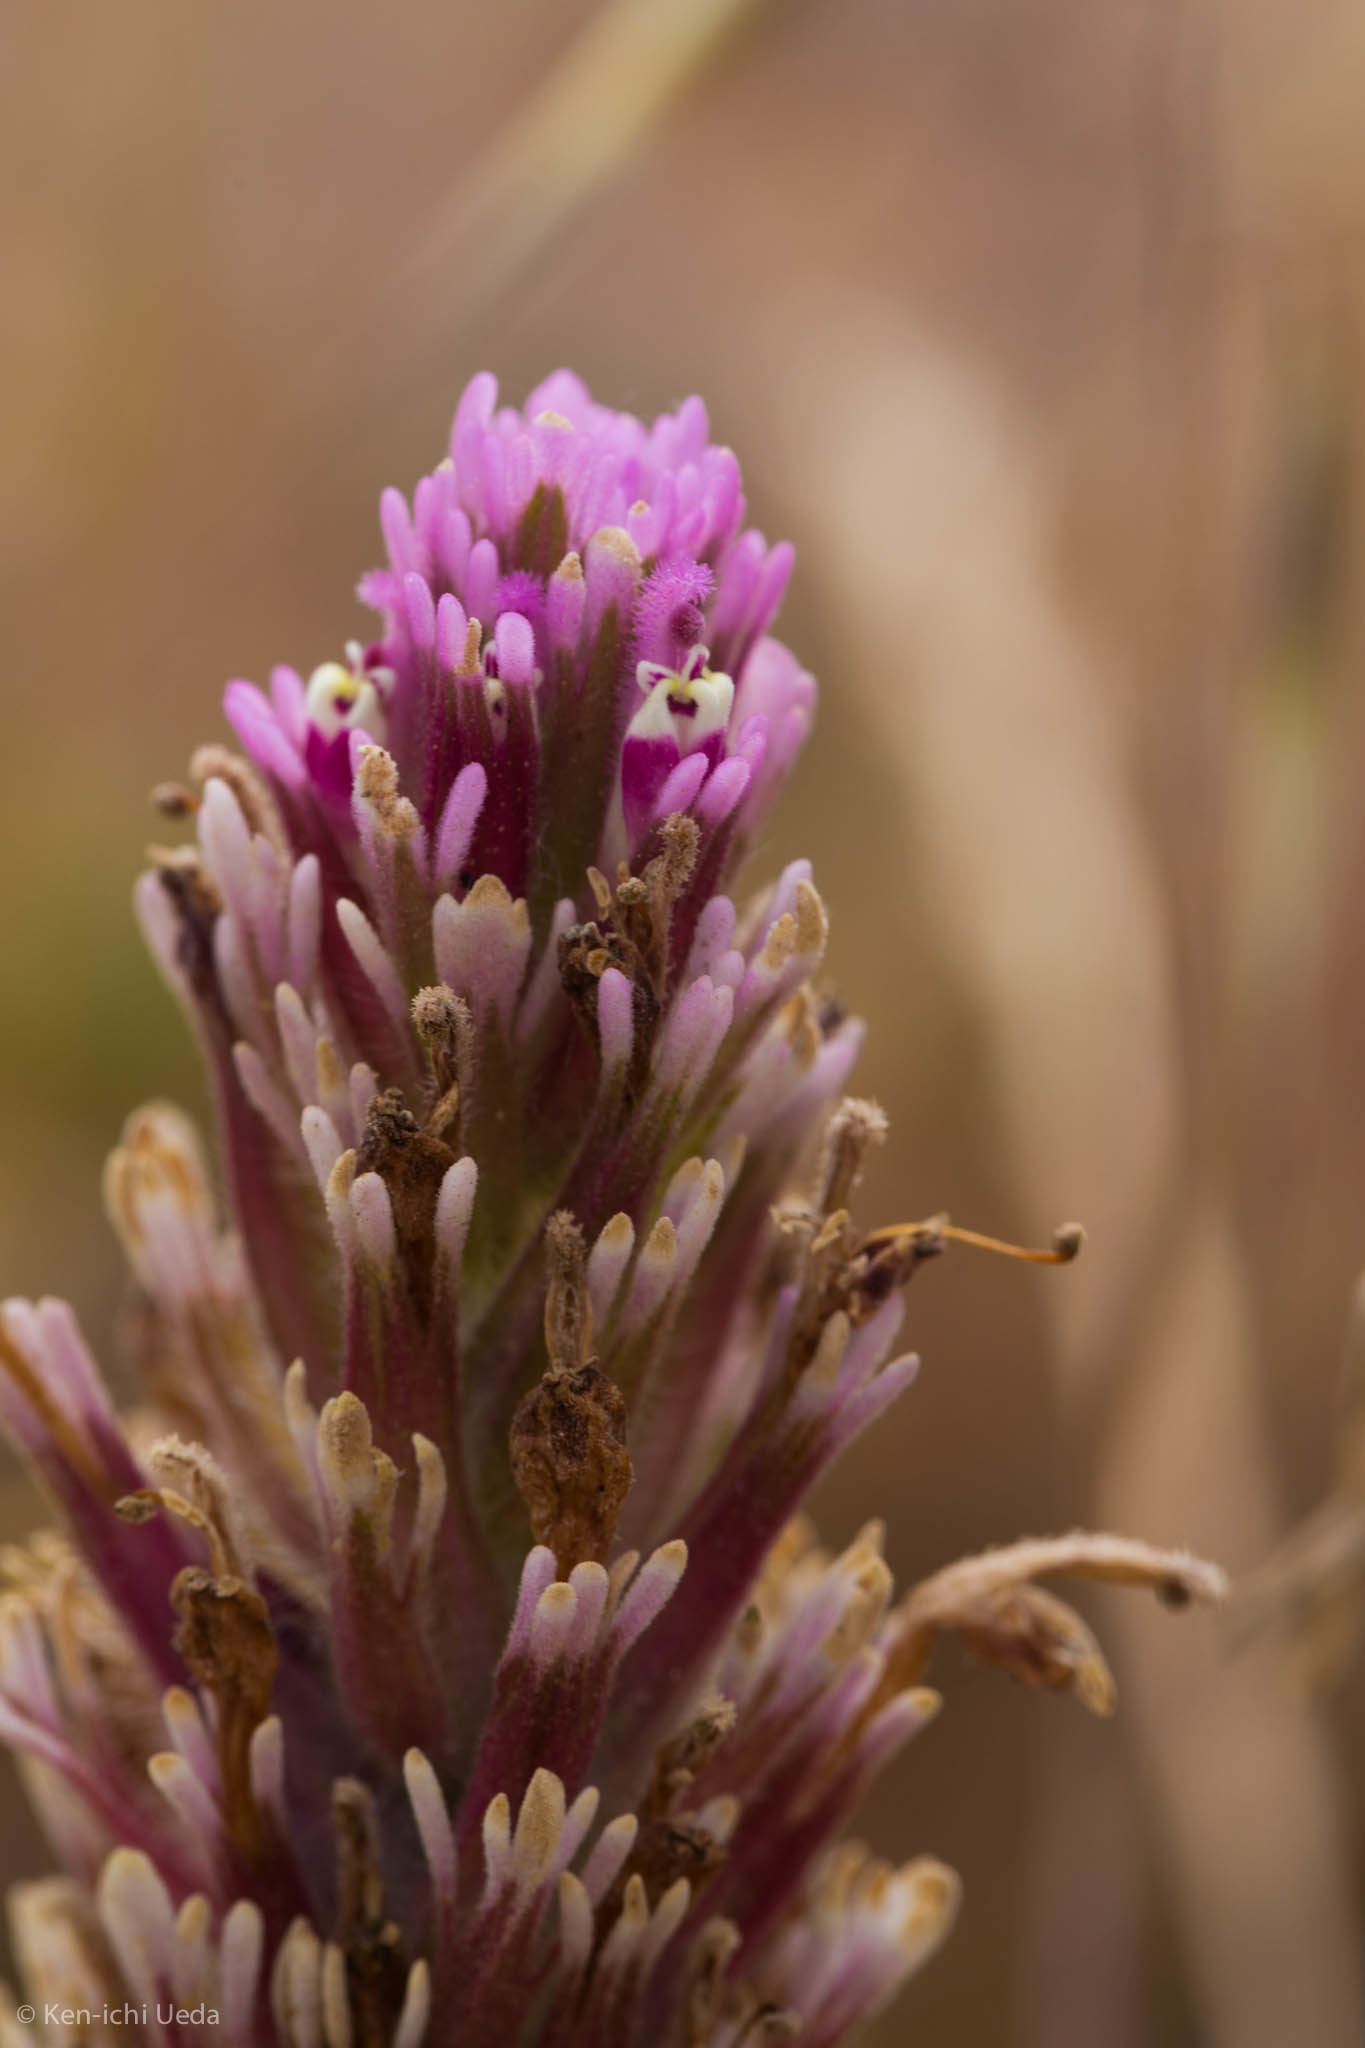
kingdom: Plantae
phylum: Tracheophyta
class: Magnoliopsida
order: Lamiales
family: Orobanchaceae
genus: Castilleja
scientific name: Castilleja exserta
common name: Purple owl-clover
